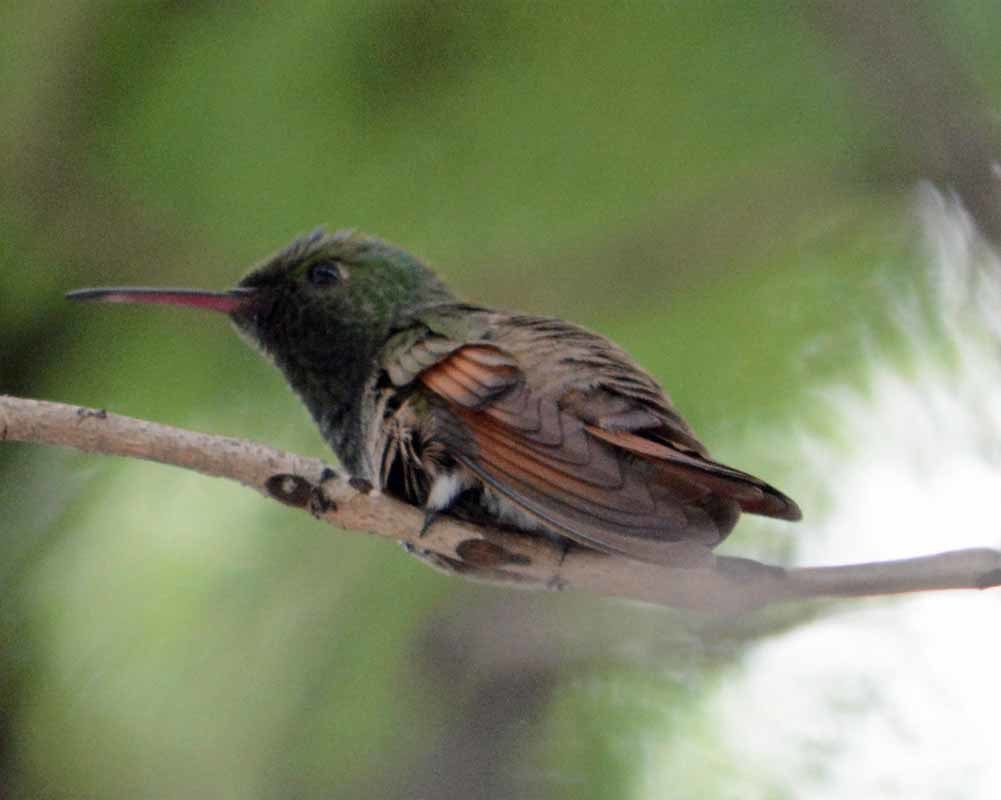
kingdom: Animalia
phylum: Chordata
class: Aves
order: Apodiformes
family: Trochilidae
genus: Saucerottia
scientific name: Saucerottia beryllina
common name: Berylline hummingbird
